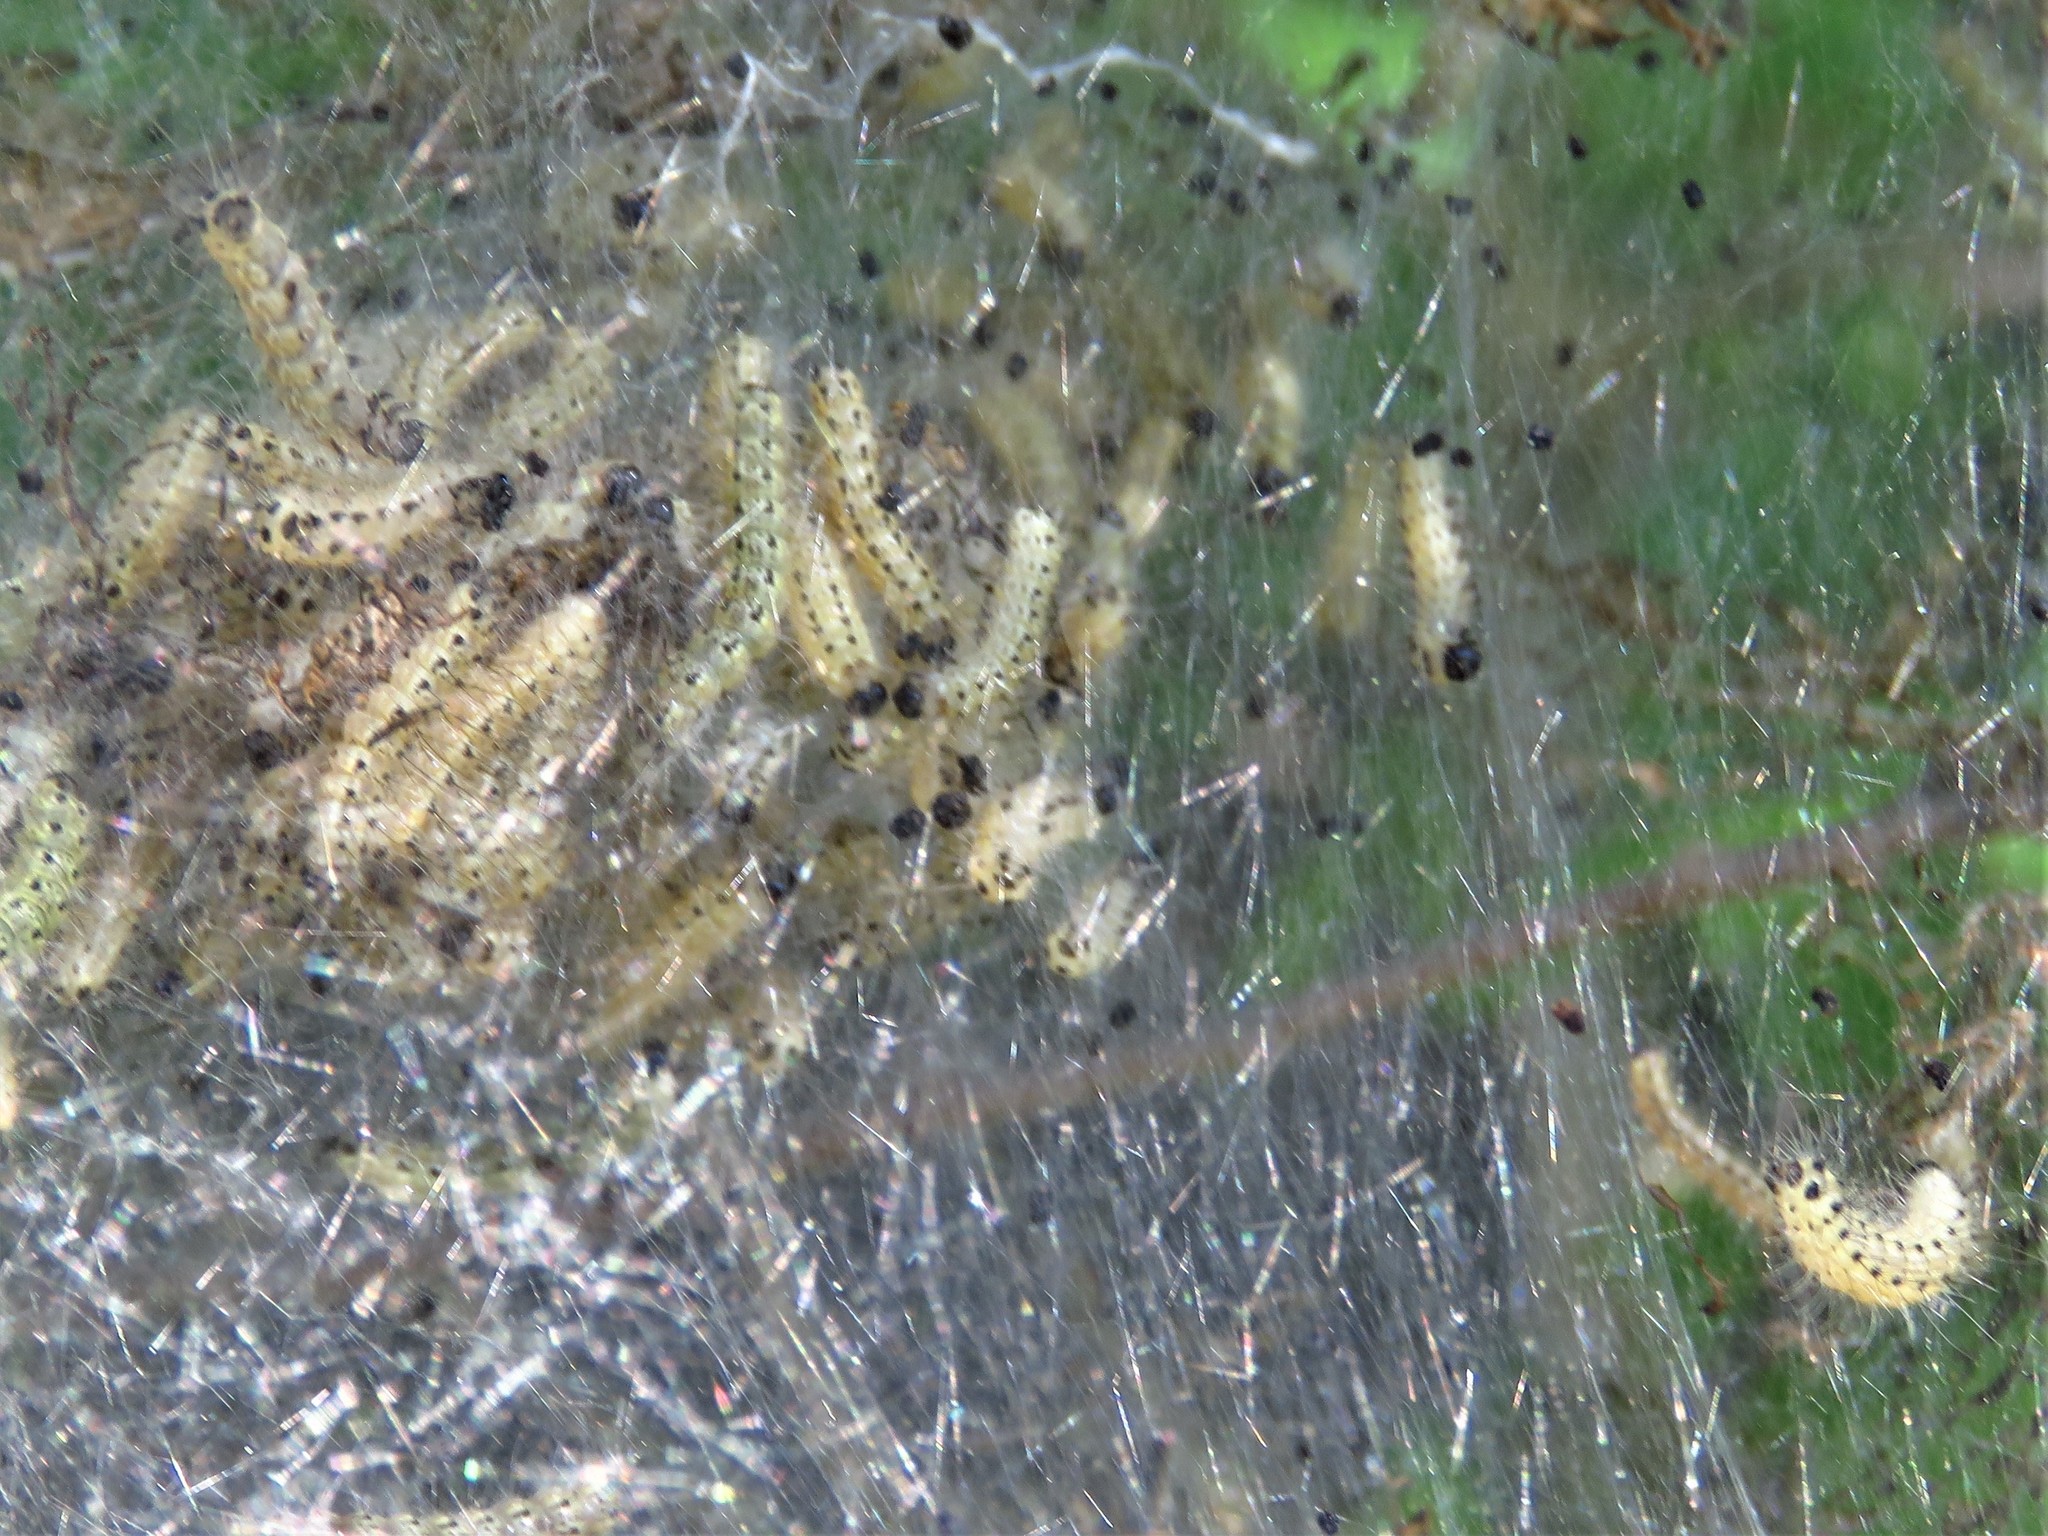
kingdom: Animalia
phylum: Arthropoda
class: Insecta
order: Lepidoptera
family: Erebidae
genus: Hyphantria
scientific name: Hyphantria cunea
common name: American white moth
